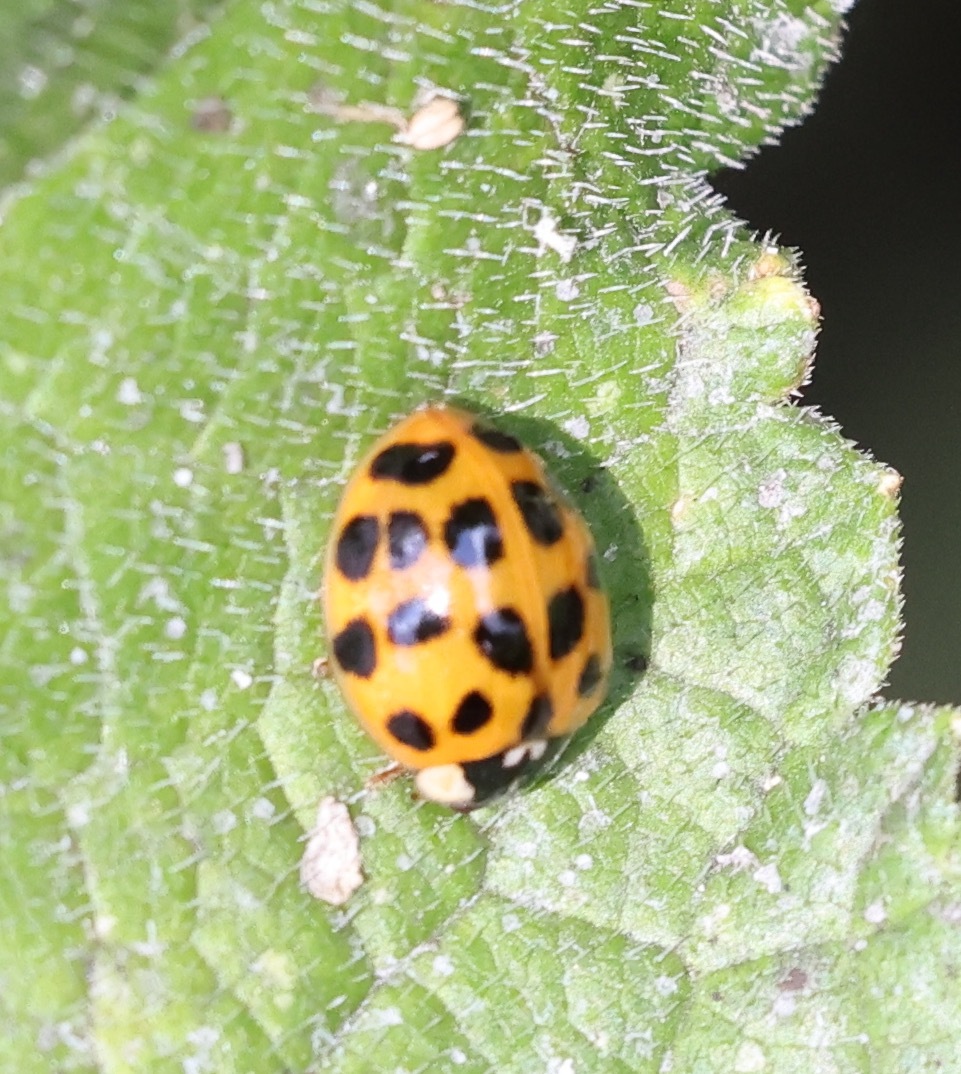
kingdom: Animalia
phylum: Arthropoda
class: Insecta
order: Coleoptera
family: Coccinellidae
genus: Harmonia
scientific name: Harmonia axyridis
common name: Harlequin ladybird
